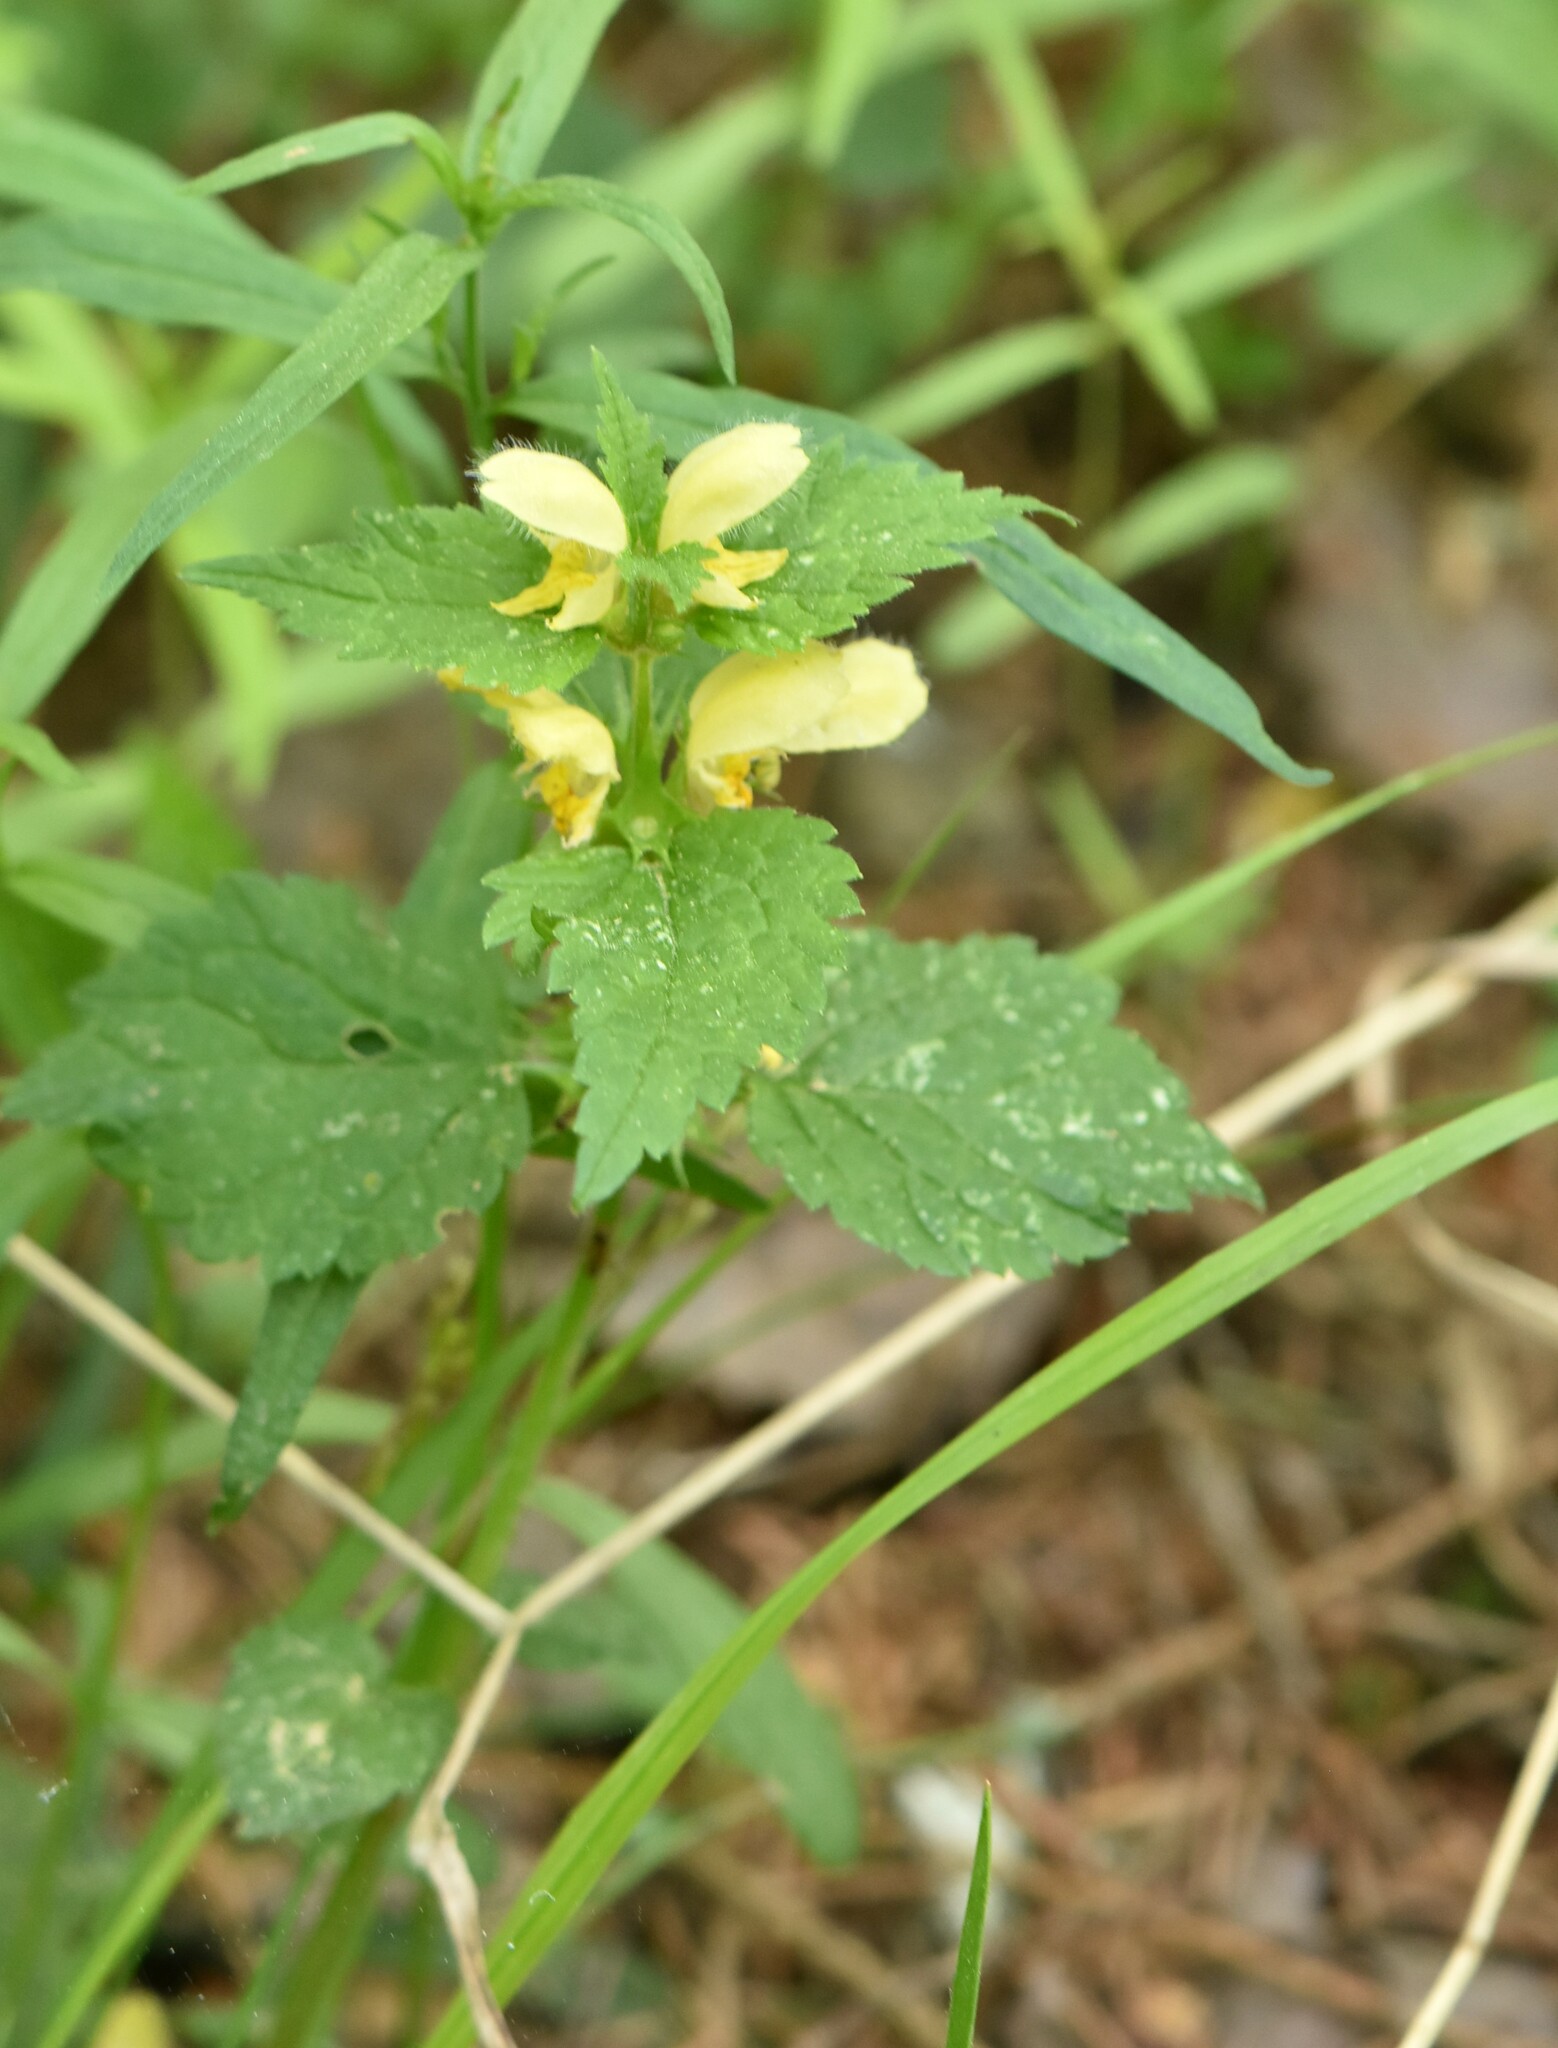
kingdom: Plantae
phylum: Tracheophyta
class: Magnoliopsida
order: Lamiales
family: Lamiaceae
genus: Lamium
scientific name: Lamium galeobdolon
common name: Yellow archangel
